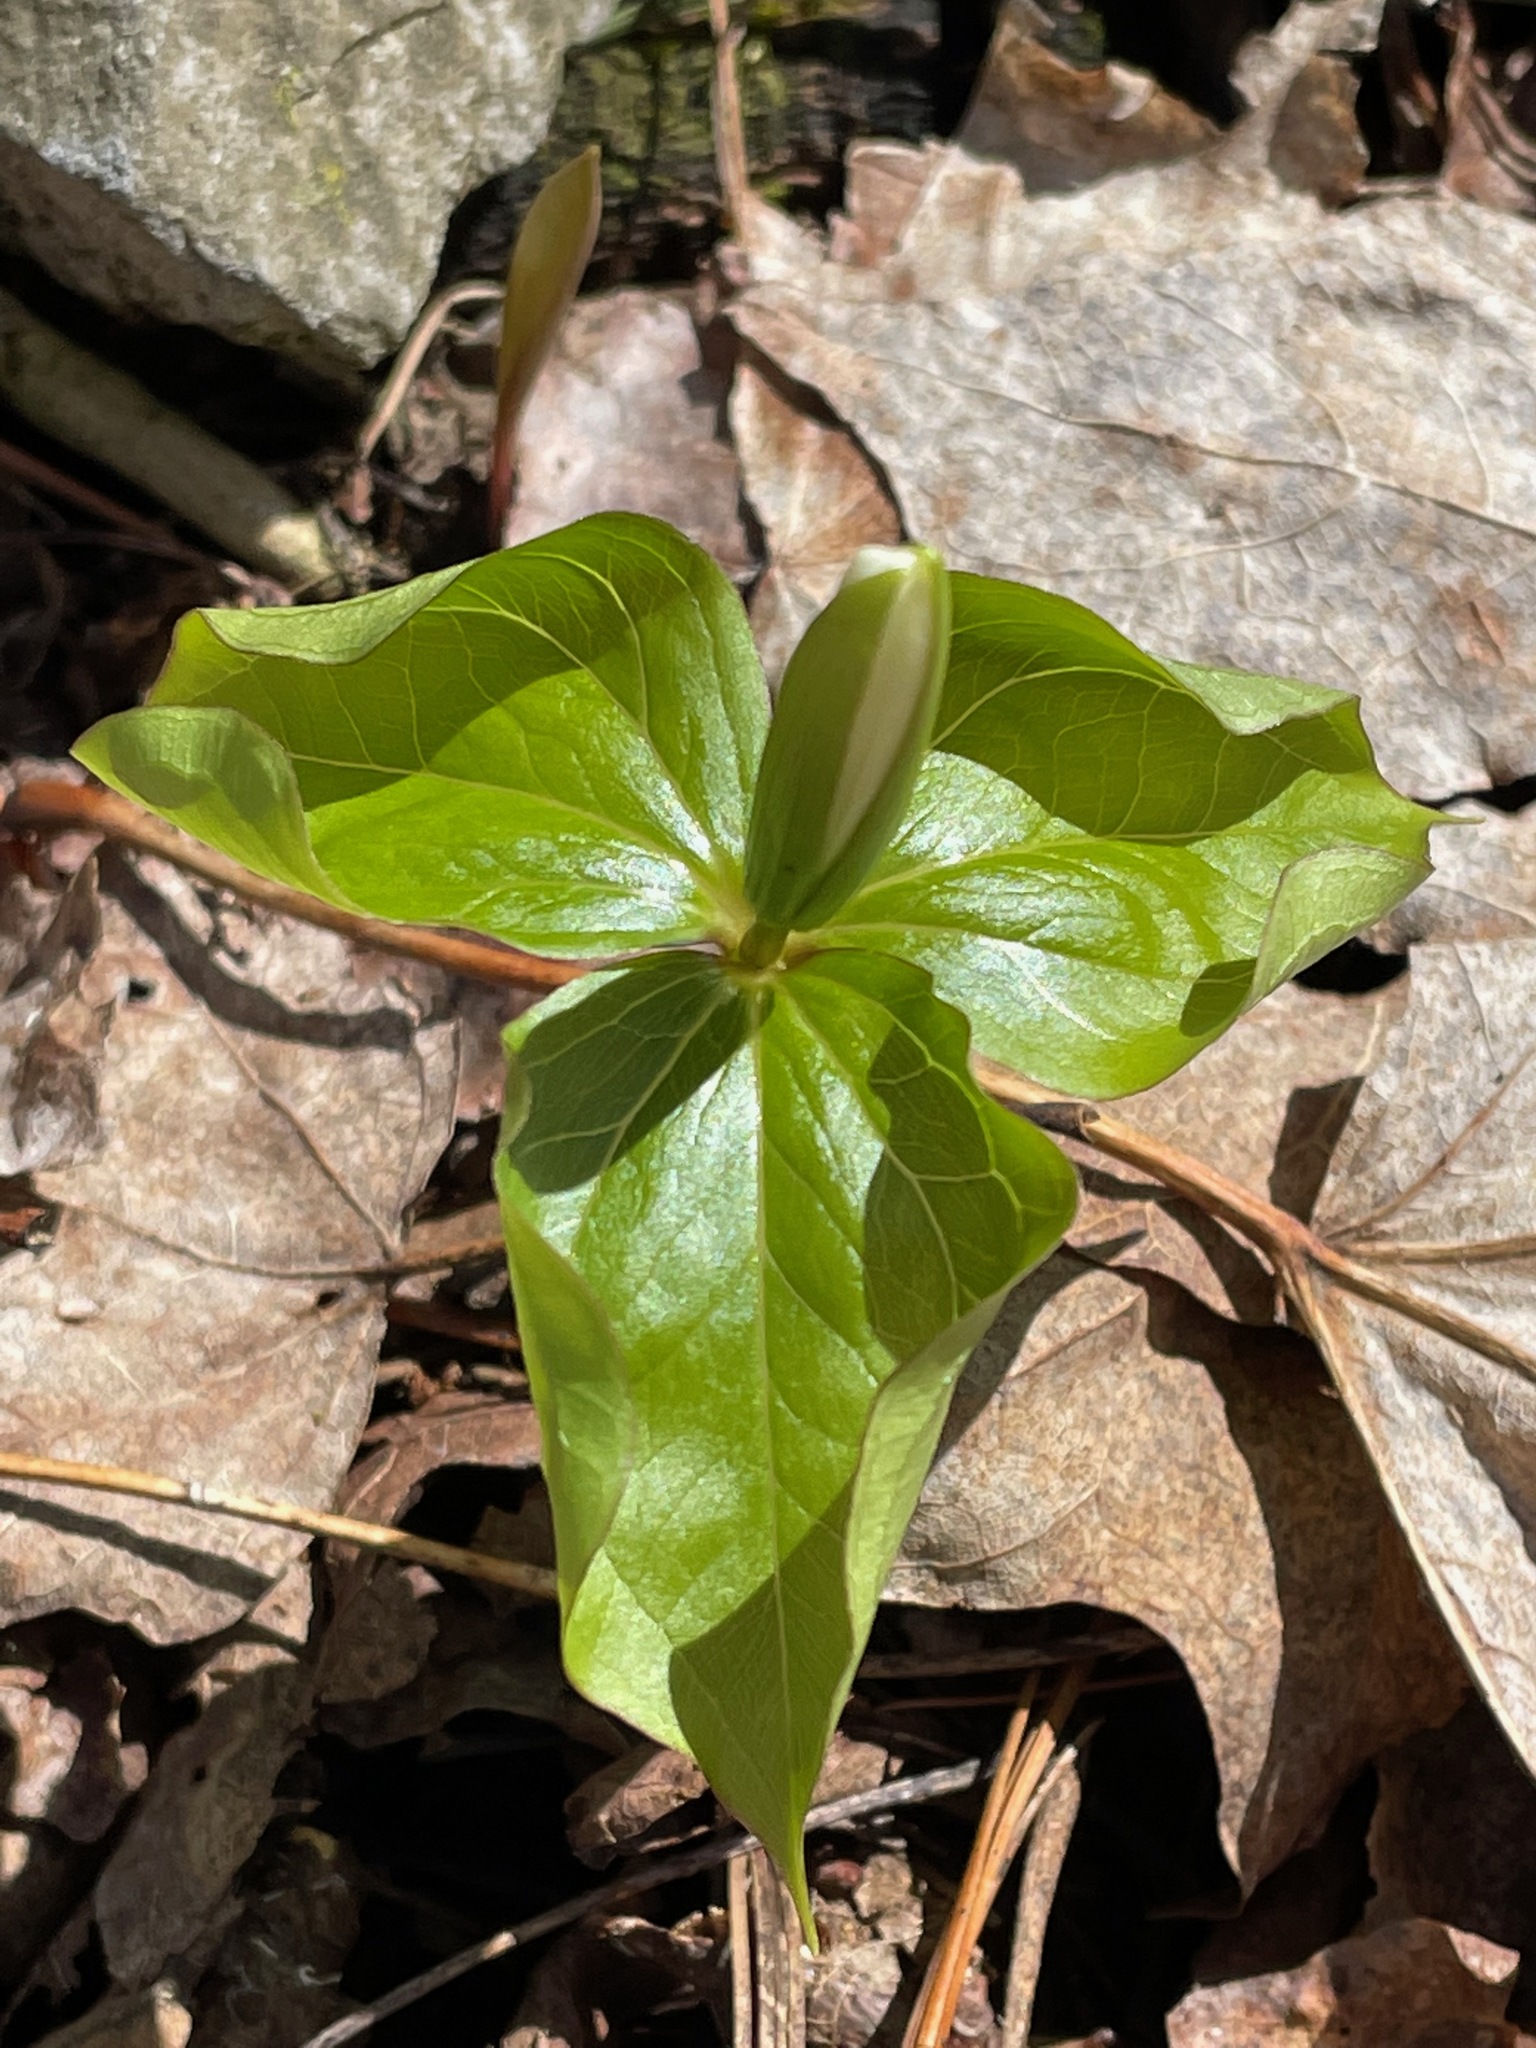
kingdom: Plantae
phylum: Tracheophyta
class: Liliopsida
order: Liliales
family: Melanthiaceae
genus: Trillium
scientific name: Trillium grandiflorum
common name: Great white trillium
